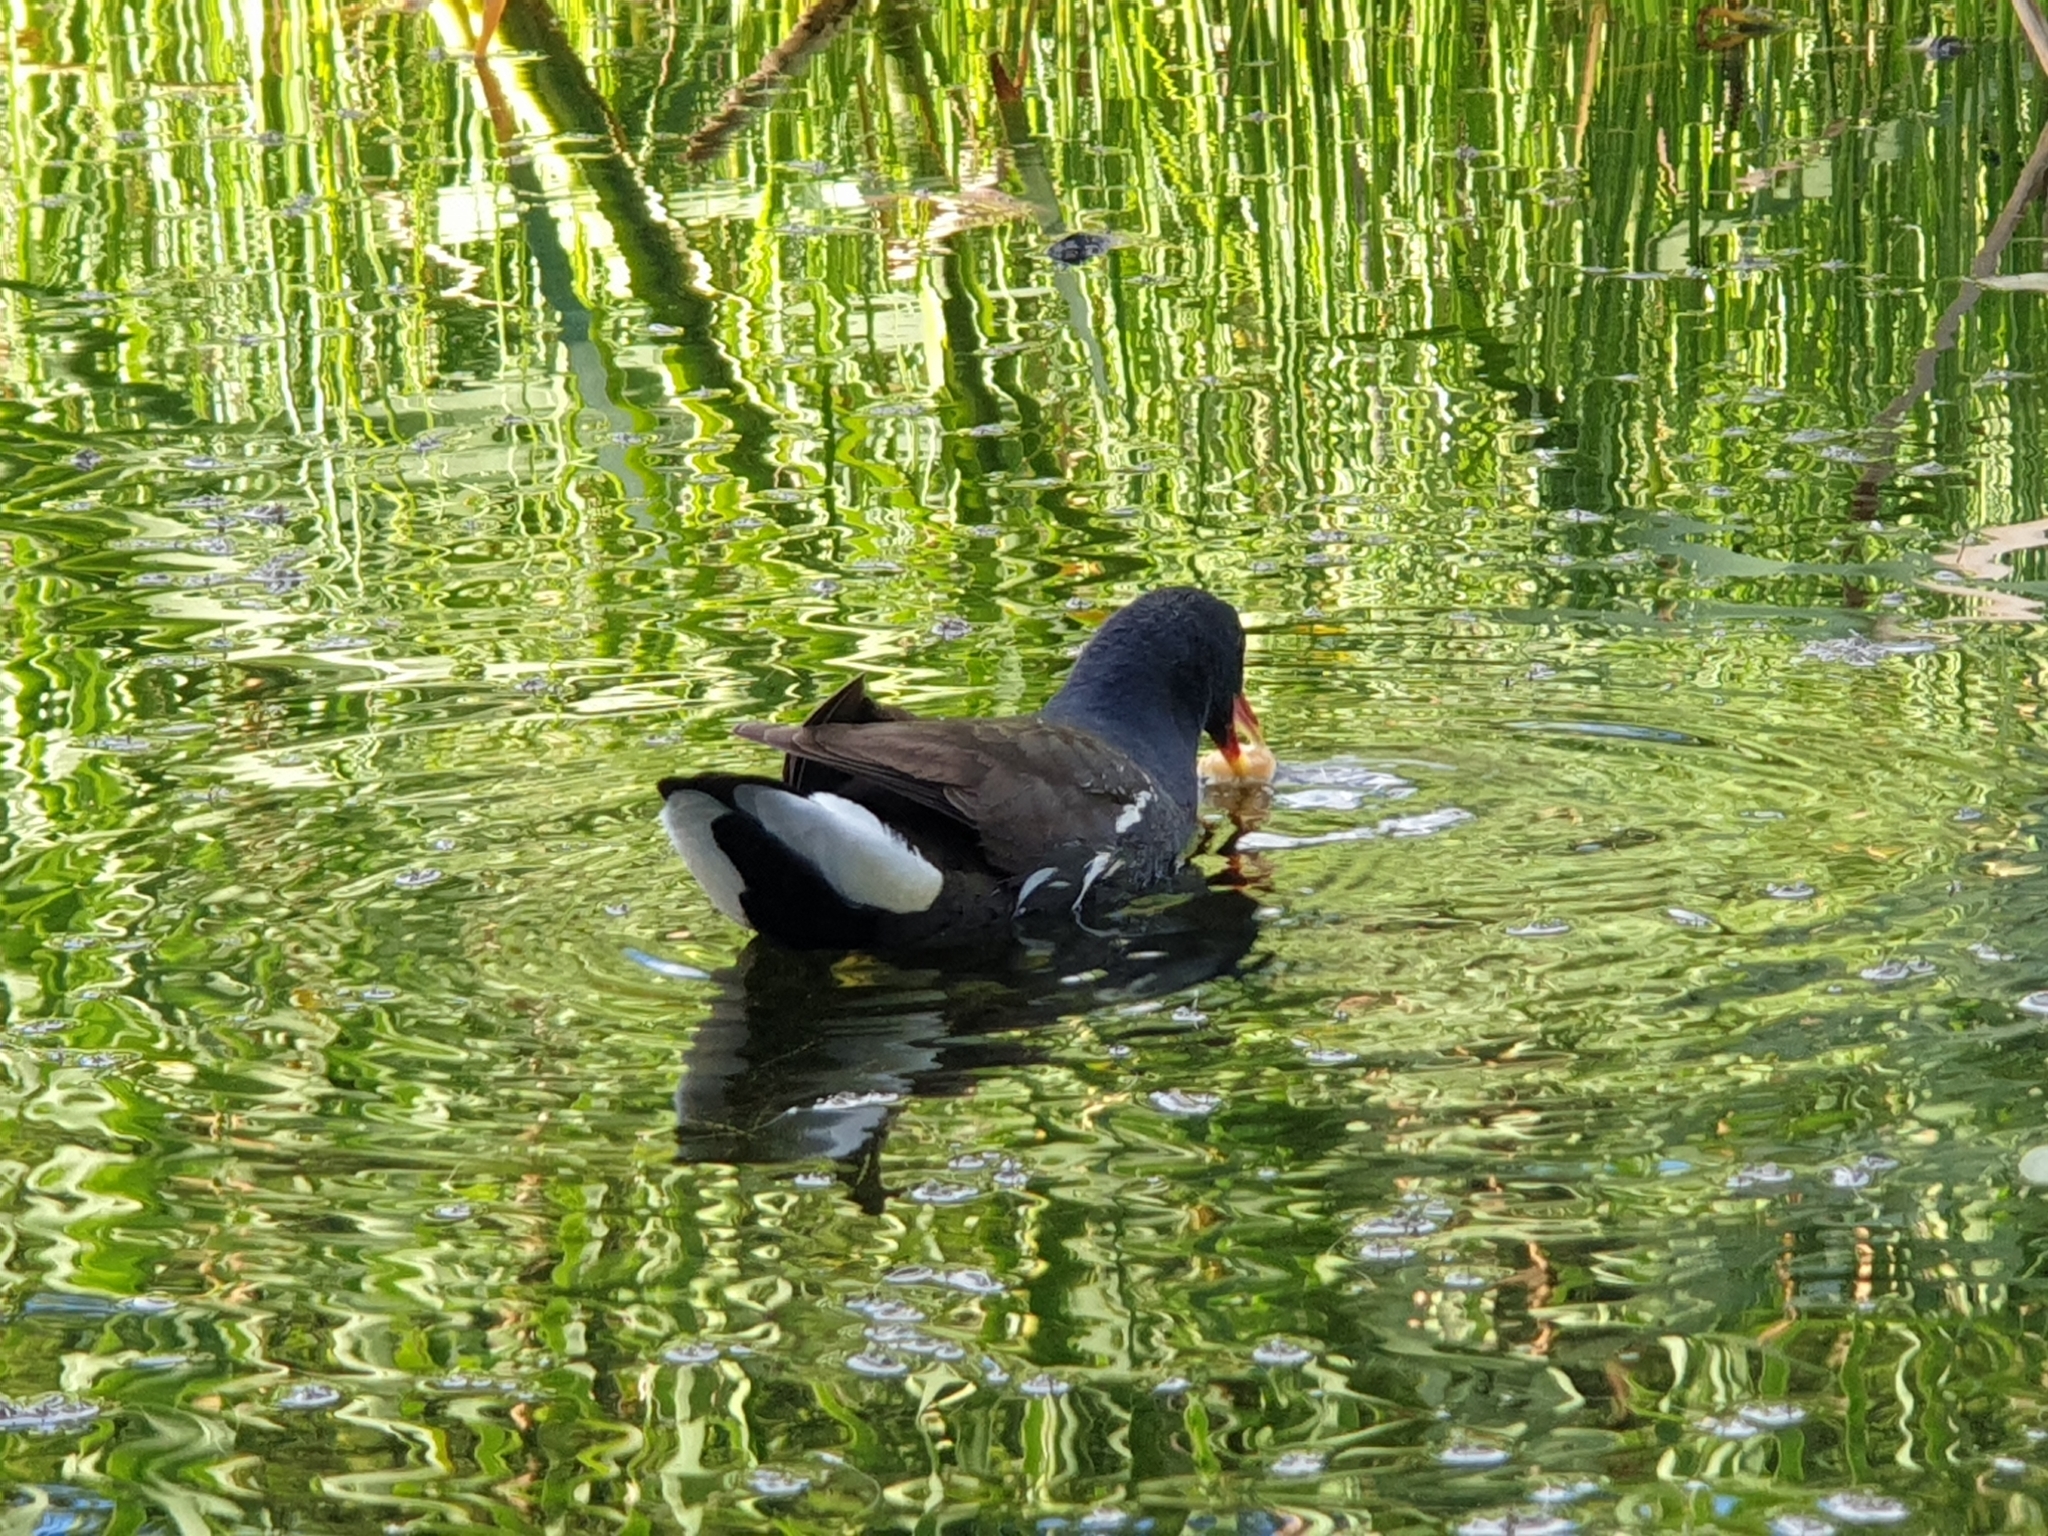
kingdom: Animalia
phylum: Chordata
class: Aves
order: Gruiformes
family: Rallidae
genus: Gallinula
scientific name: Gallinula chloropus
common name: Common moorhen
